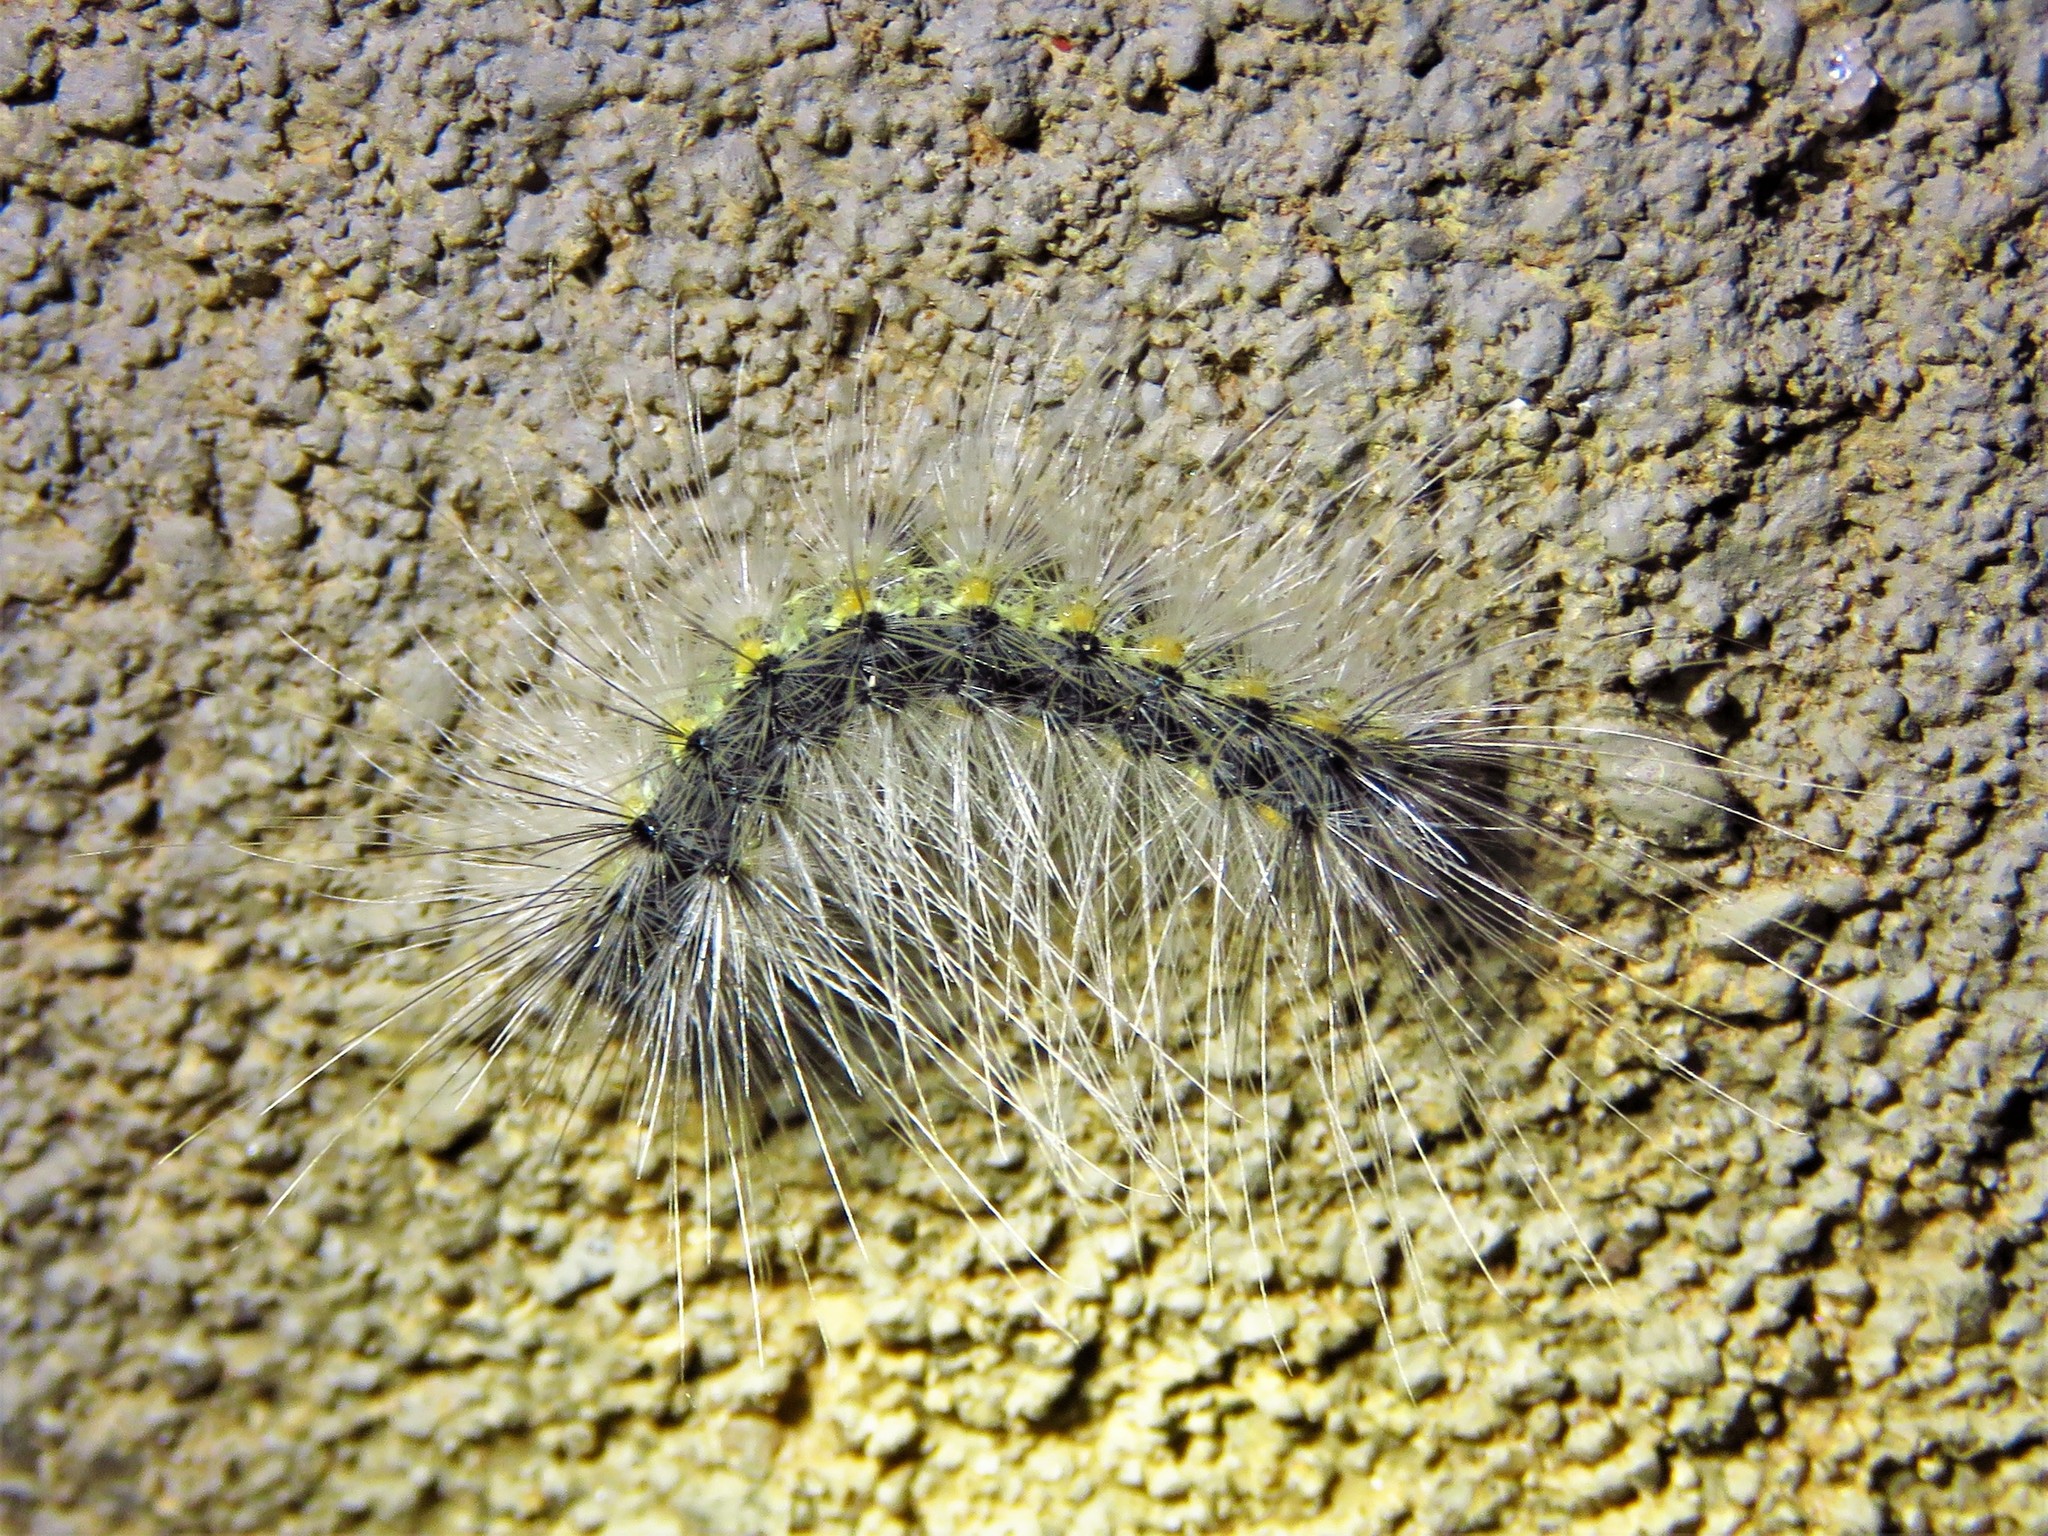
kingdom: Animalia
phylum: Arthropoda
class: Insecta
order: Lepidoptera
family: Erebidae
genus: Hyphantria
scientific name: Hyphantria cunea
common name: American white moth
